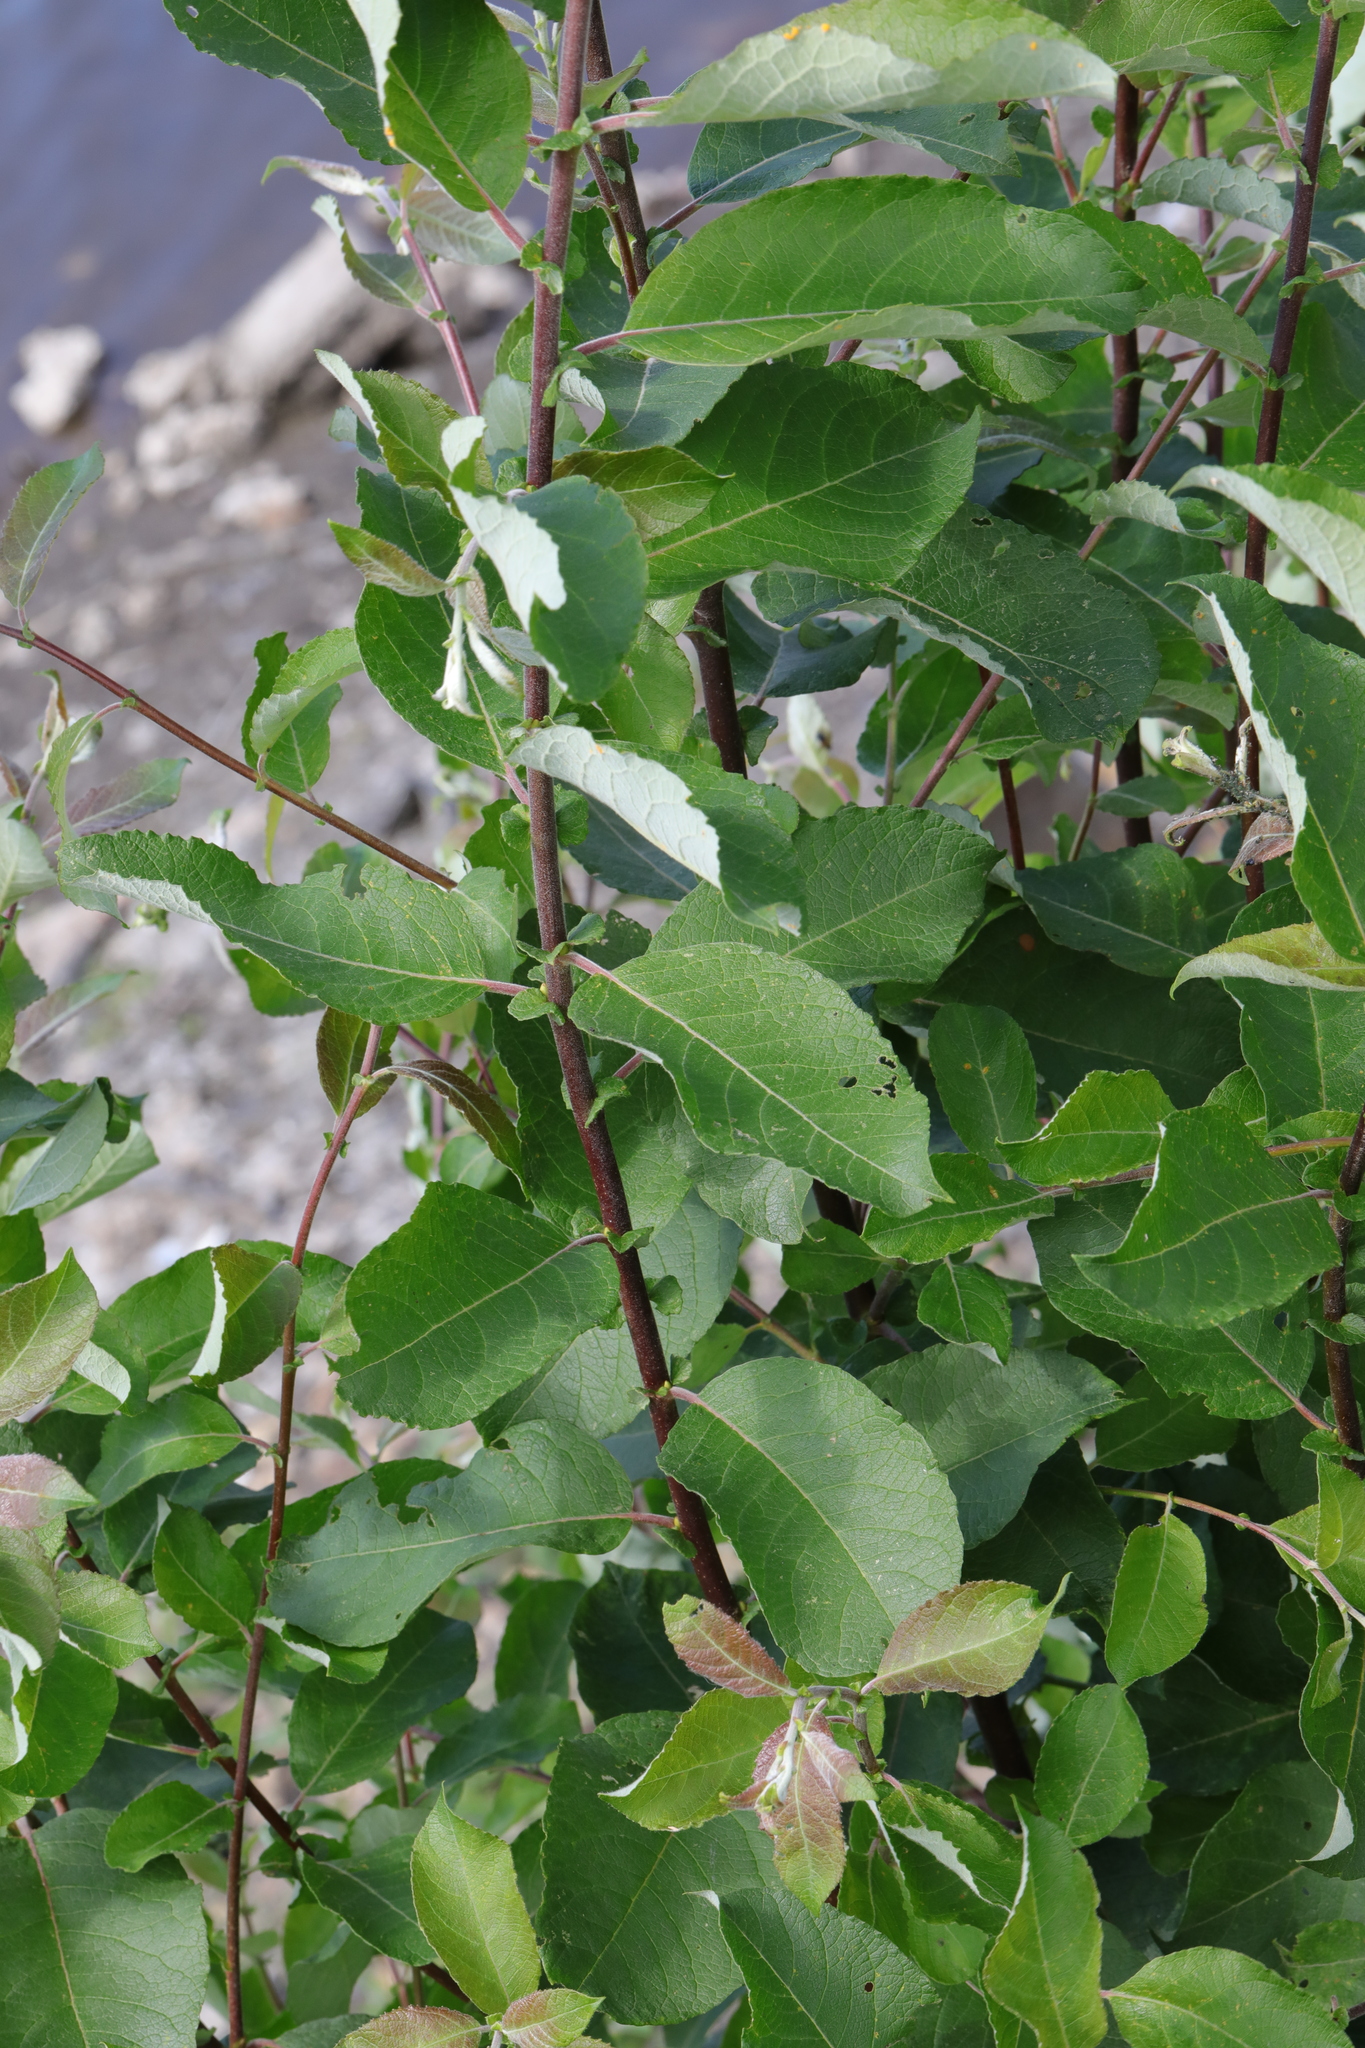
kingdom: Plantae
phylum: Tracheophyta
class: Magnoliopsida
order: Malpighiales
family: Salicaceae
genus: Salix
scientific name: Salix caprea
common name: Goat willow
